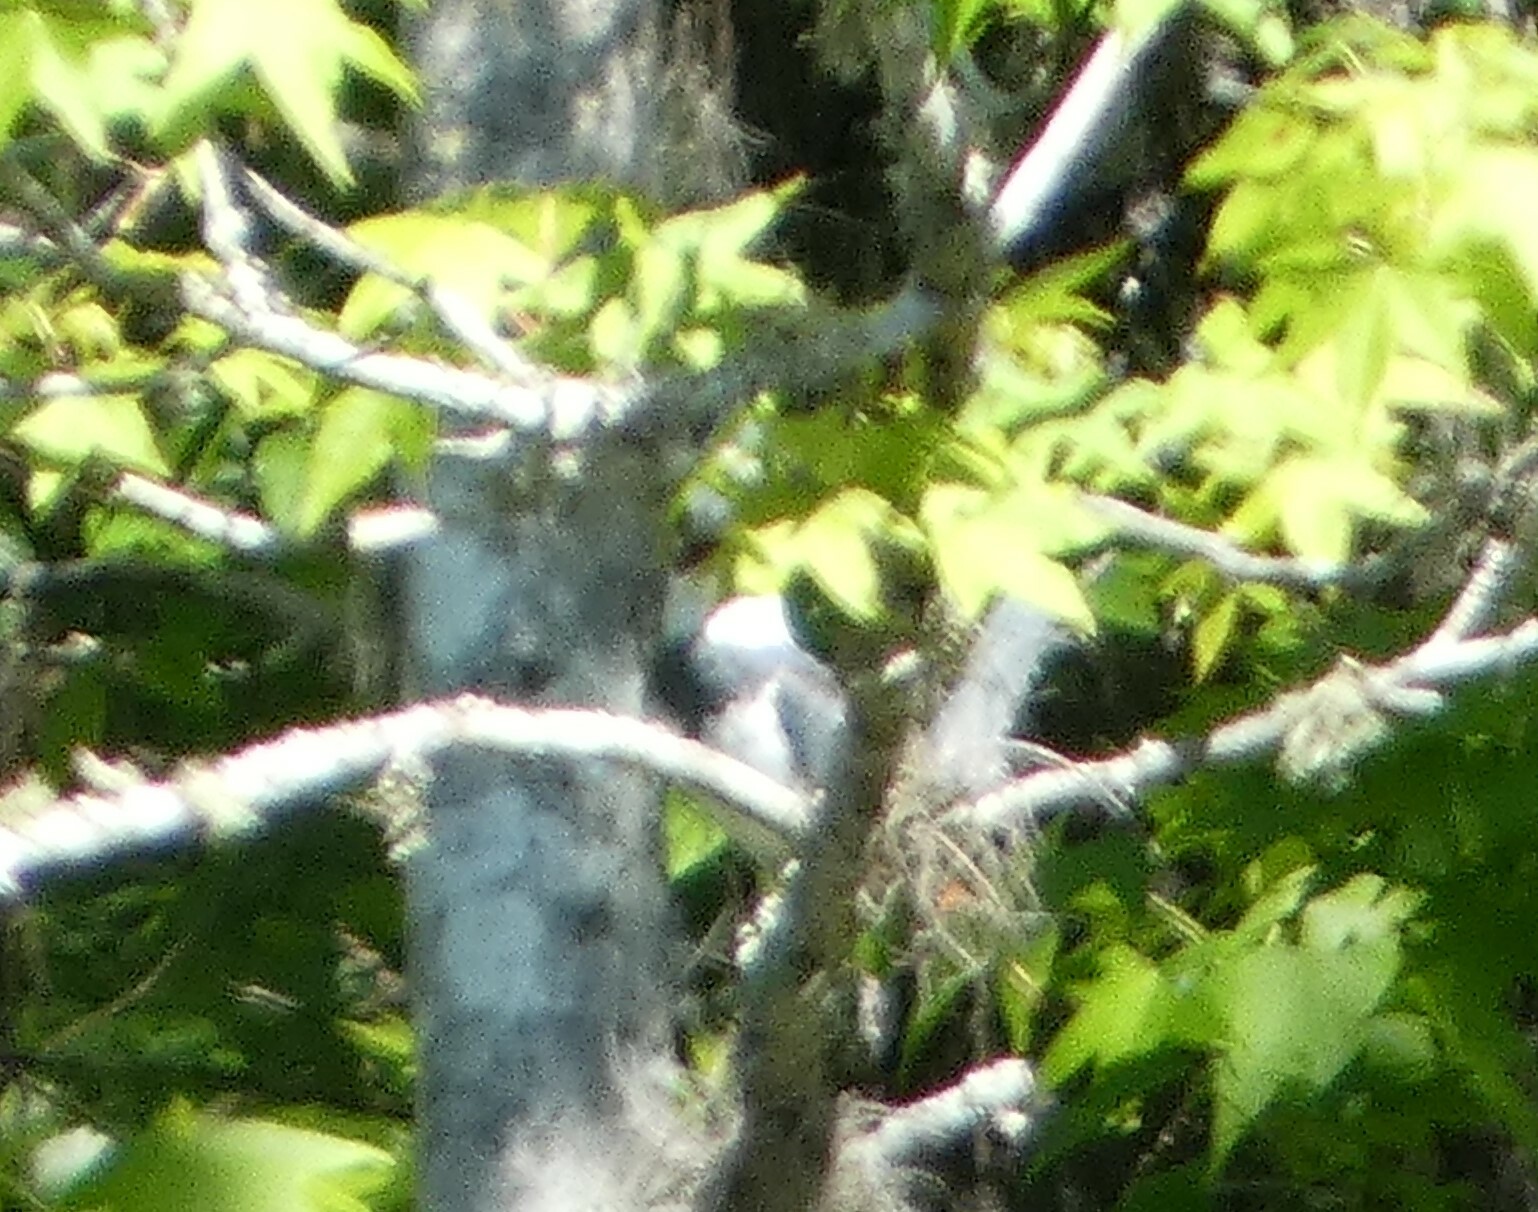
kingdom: Animalia
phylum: Chordata
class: Aves
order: Coraciiformes
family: Alcedinidae
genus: Megaceryle
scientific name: Megaceryle alcyon
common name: Belted kingfisher
